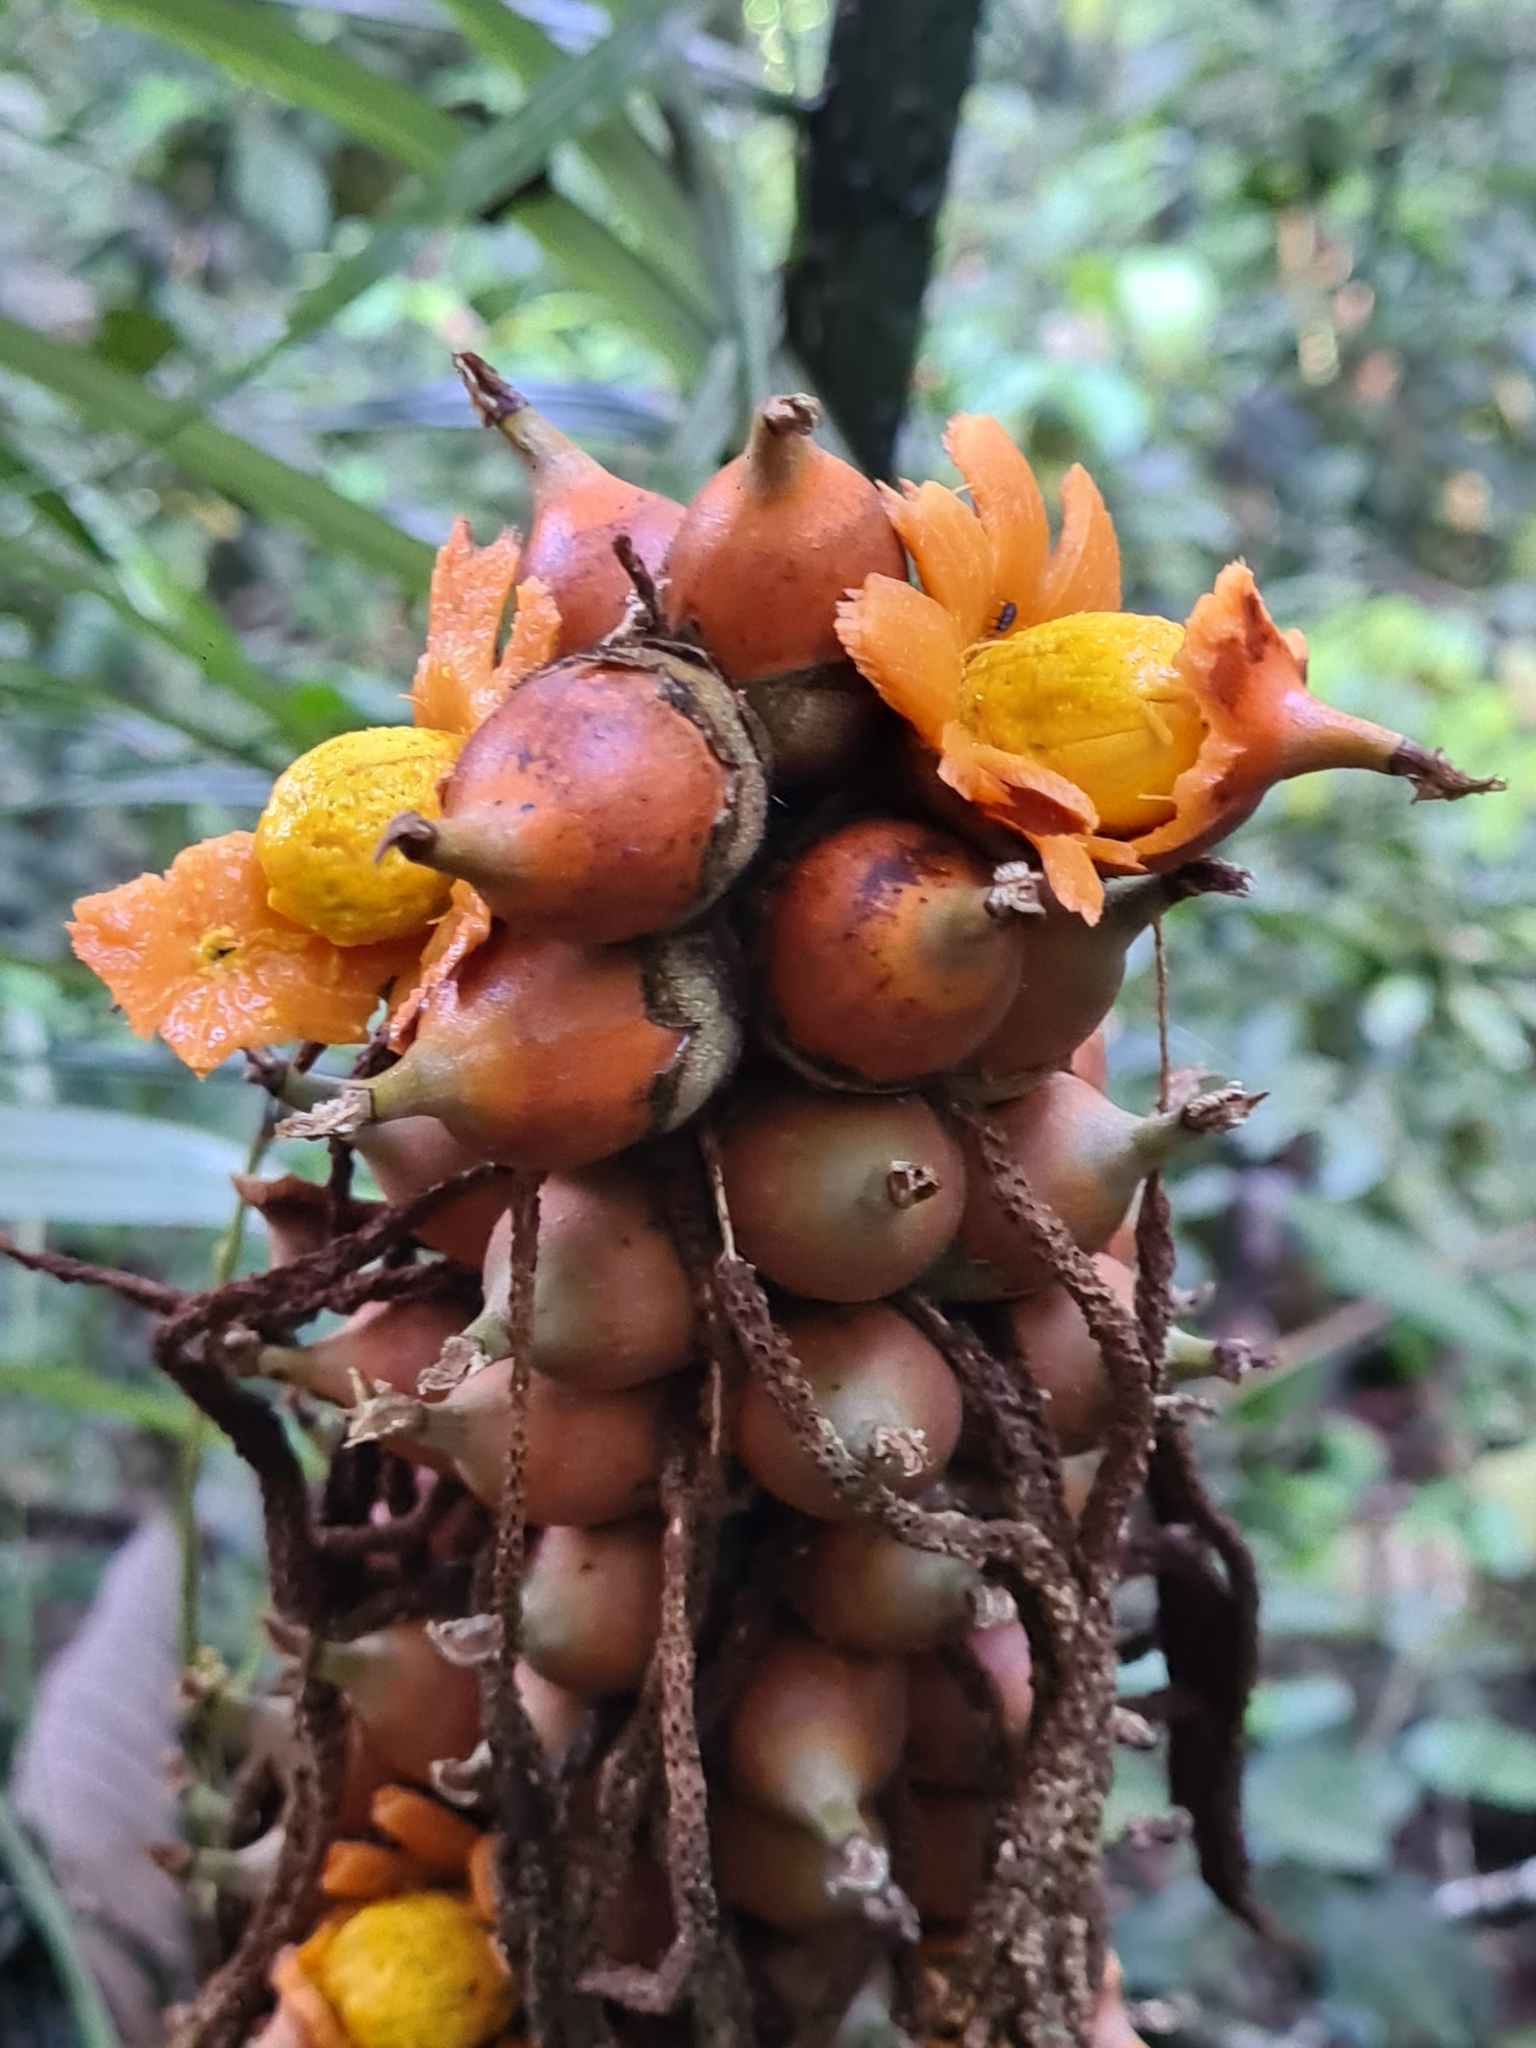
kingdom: Plantae
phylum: Tracheophyta
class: Liliopsida
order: Arecales
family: Arecaceae
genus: Astrocaryum
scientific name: Astrocaryum paramaca
